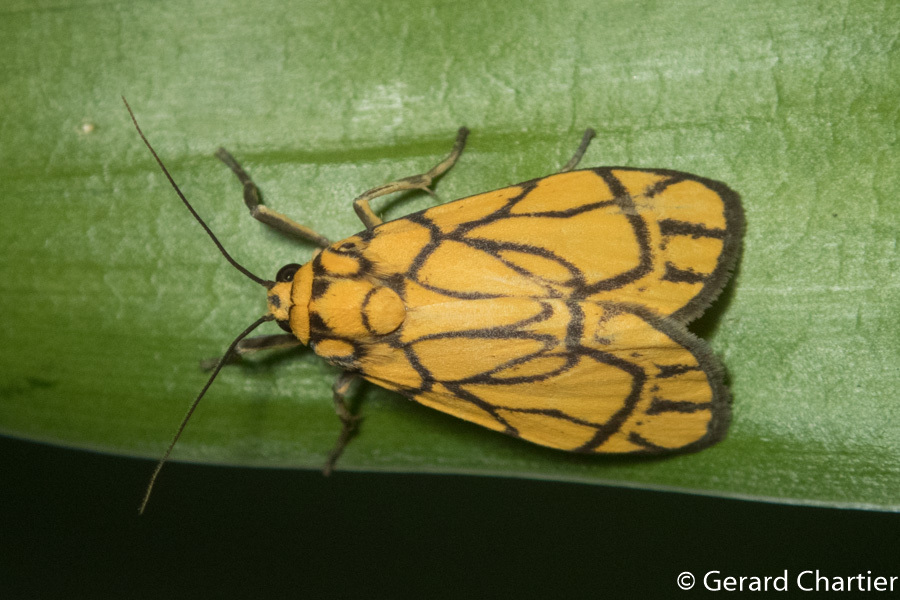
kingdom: Animalia
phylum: Arthropoda
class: Insecta
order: Lepidoptera
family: Erebidae
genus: Cyme
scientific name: Cyme euprepioides
